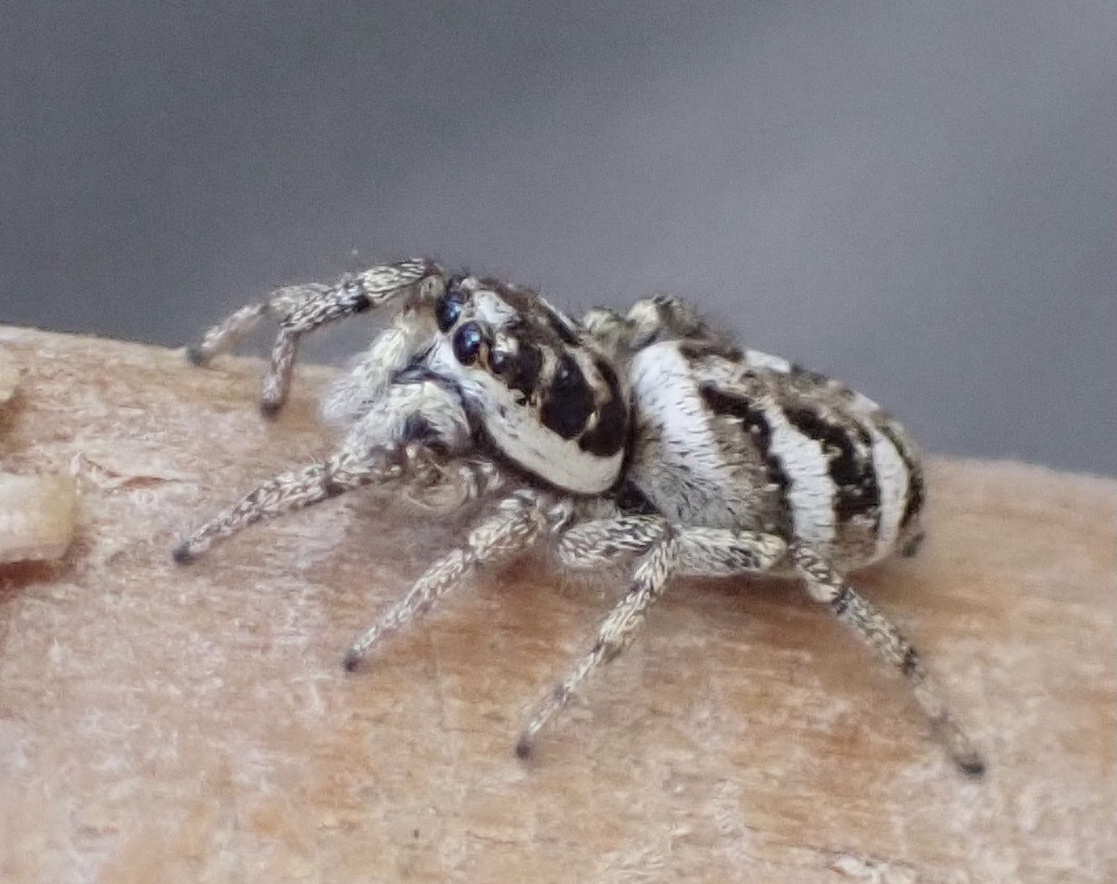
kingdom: Animalia
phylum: Arthropoda
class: Arachnida
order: Araneae
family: Salticidae
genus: Salticus
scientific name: Salticus scenicus
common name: Zebra jumper
